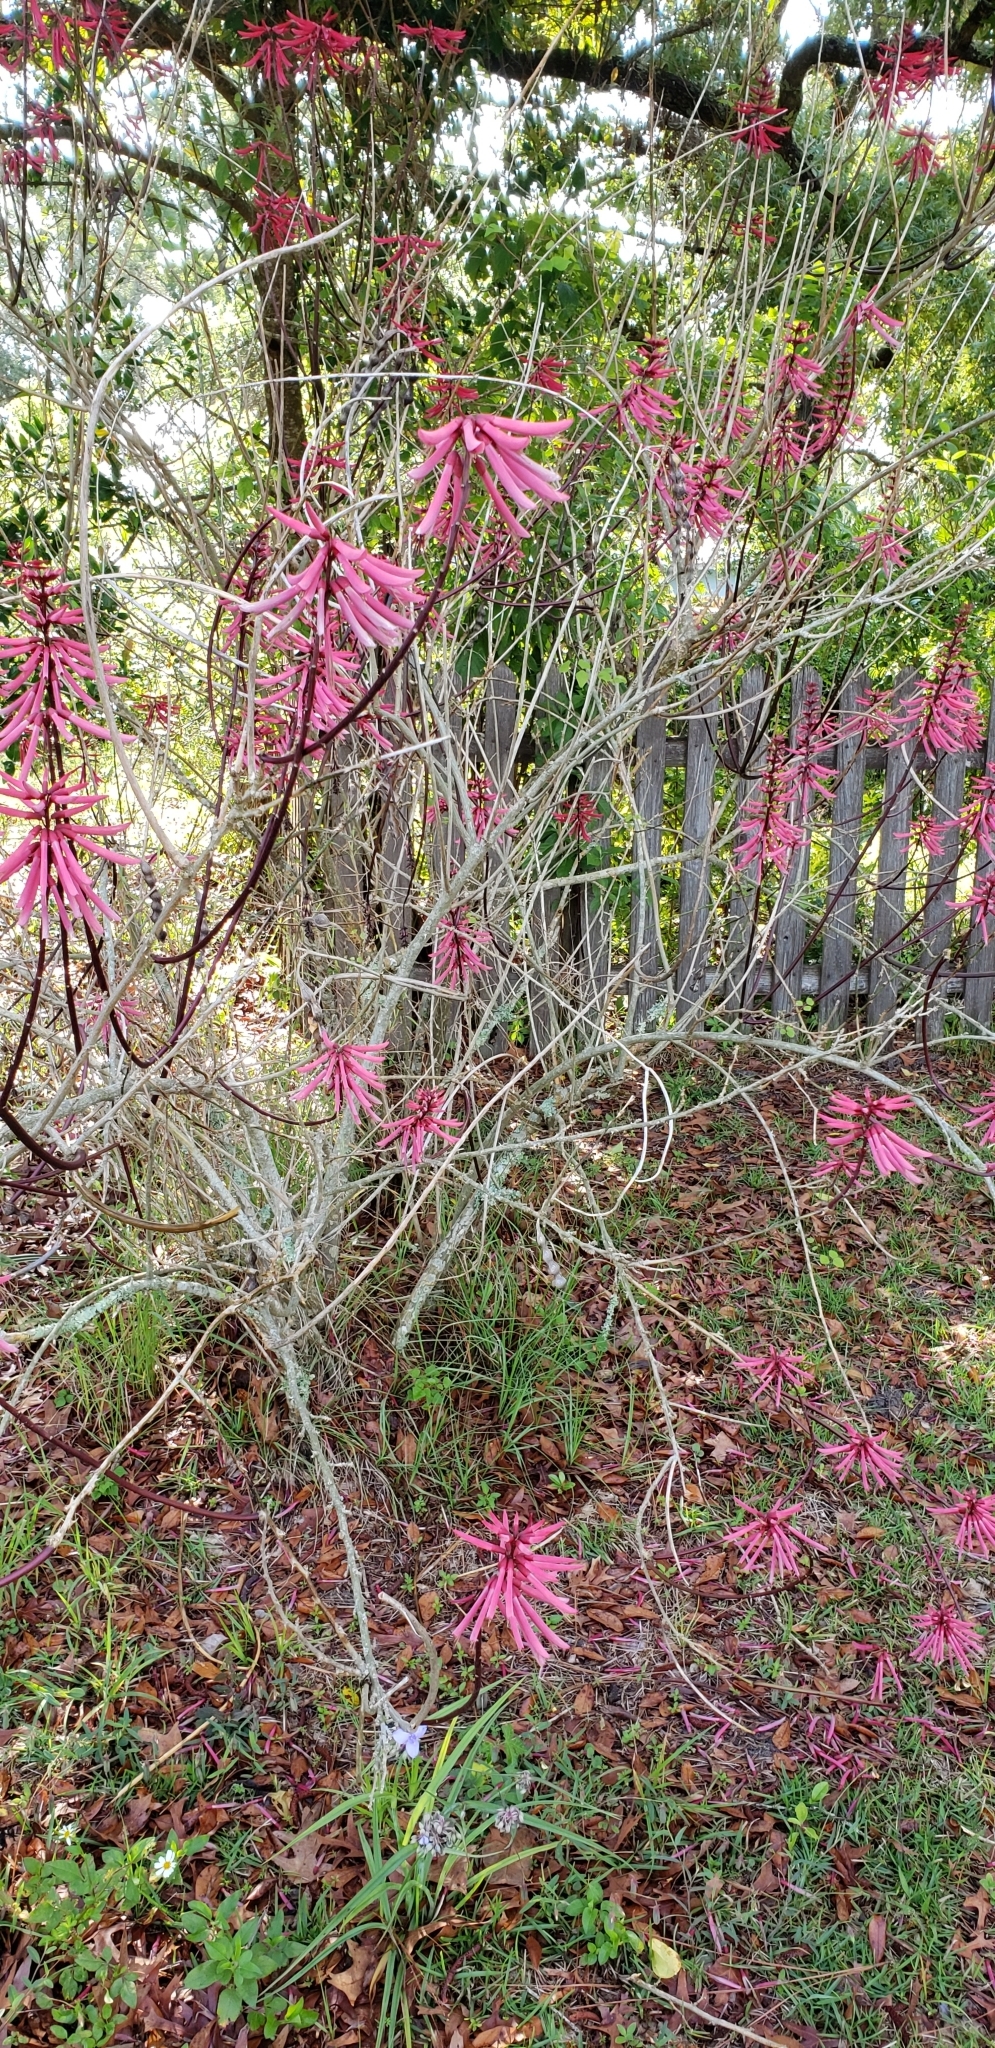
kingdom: Plantae
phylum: Tracheophyta
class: Magnoliopsida
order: Fabales
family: Fabaceae
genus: Erythrina
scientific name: Erythrina herbacea
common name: Coral-bean
